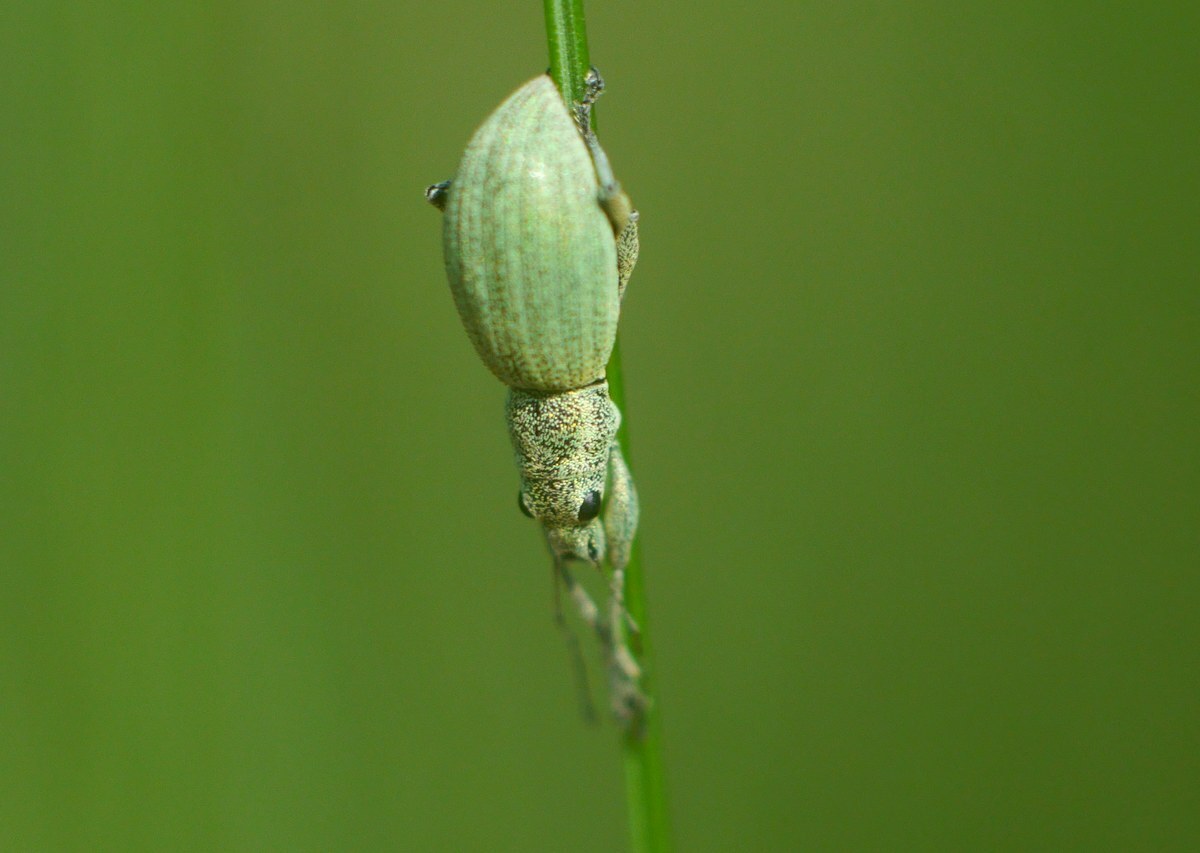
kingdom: Animalia
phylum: Arthropoda
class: Insecta
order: Coleoptera
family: Curculionidae
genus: Eusomus
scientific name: Eusomus ovulum
